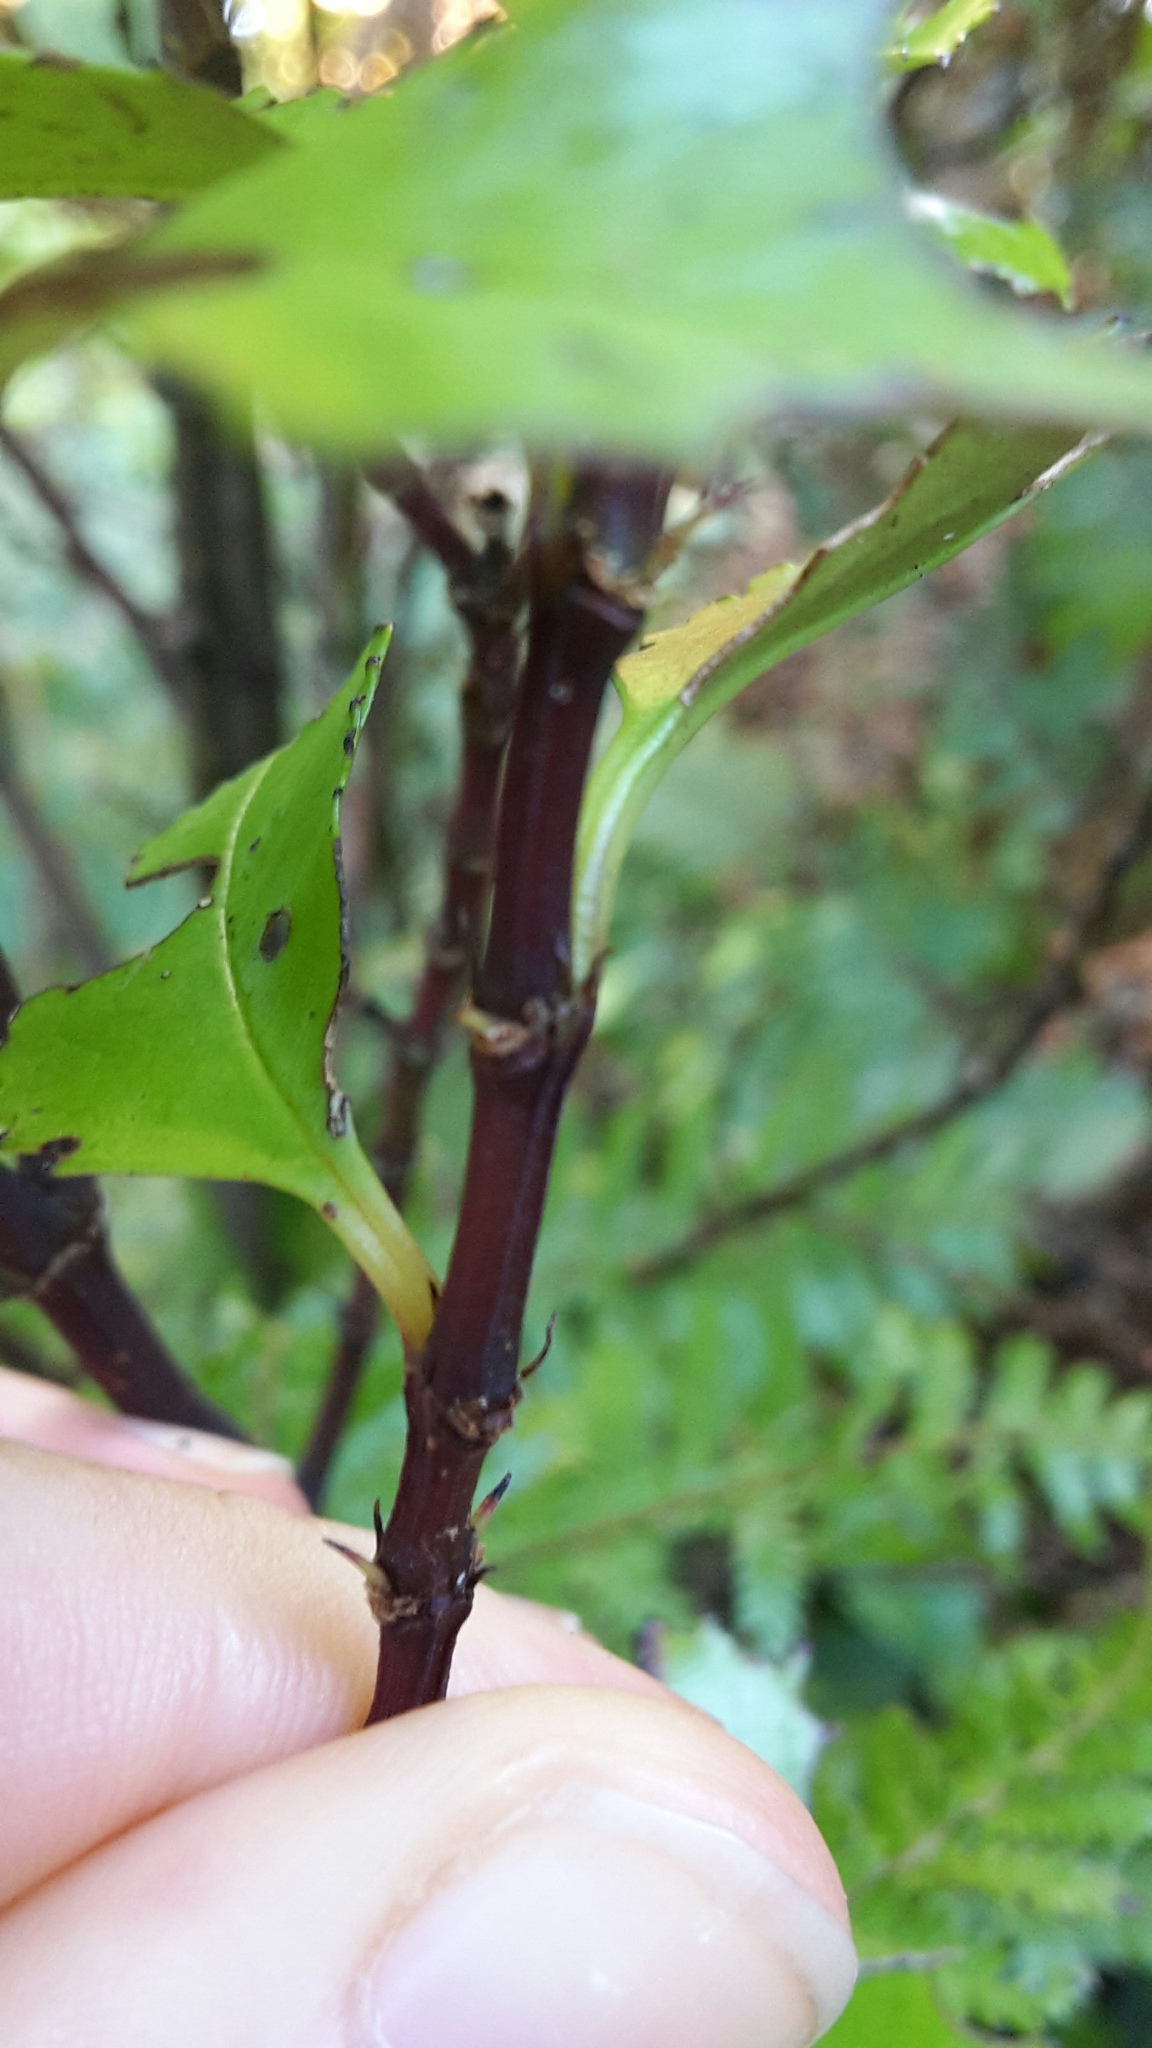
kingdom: Plantae
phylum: Tracheophyta
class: Magnoliopsida
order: Chloranthales
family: Chloranthaceae
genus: Ascarina
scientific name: Ascarina lucida
